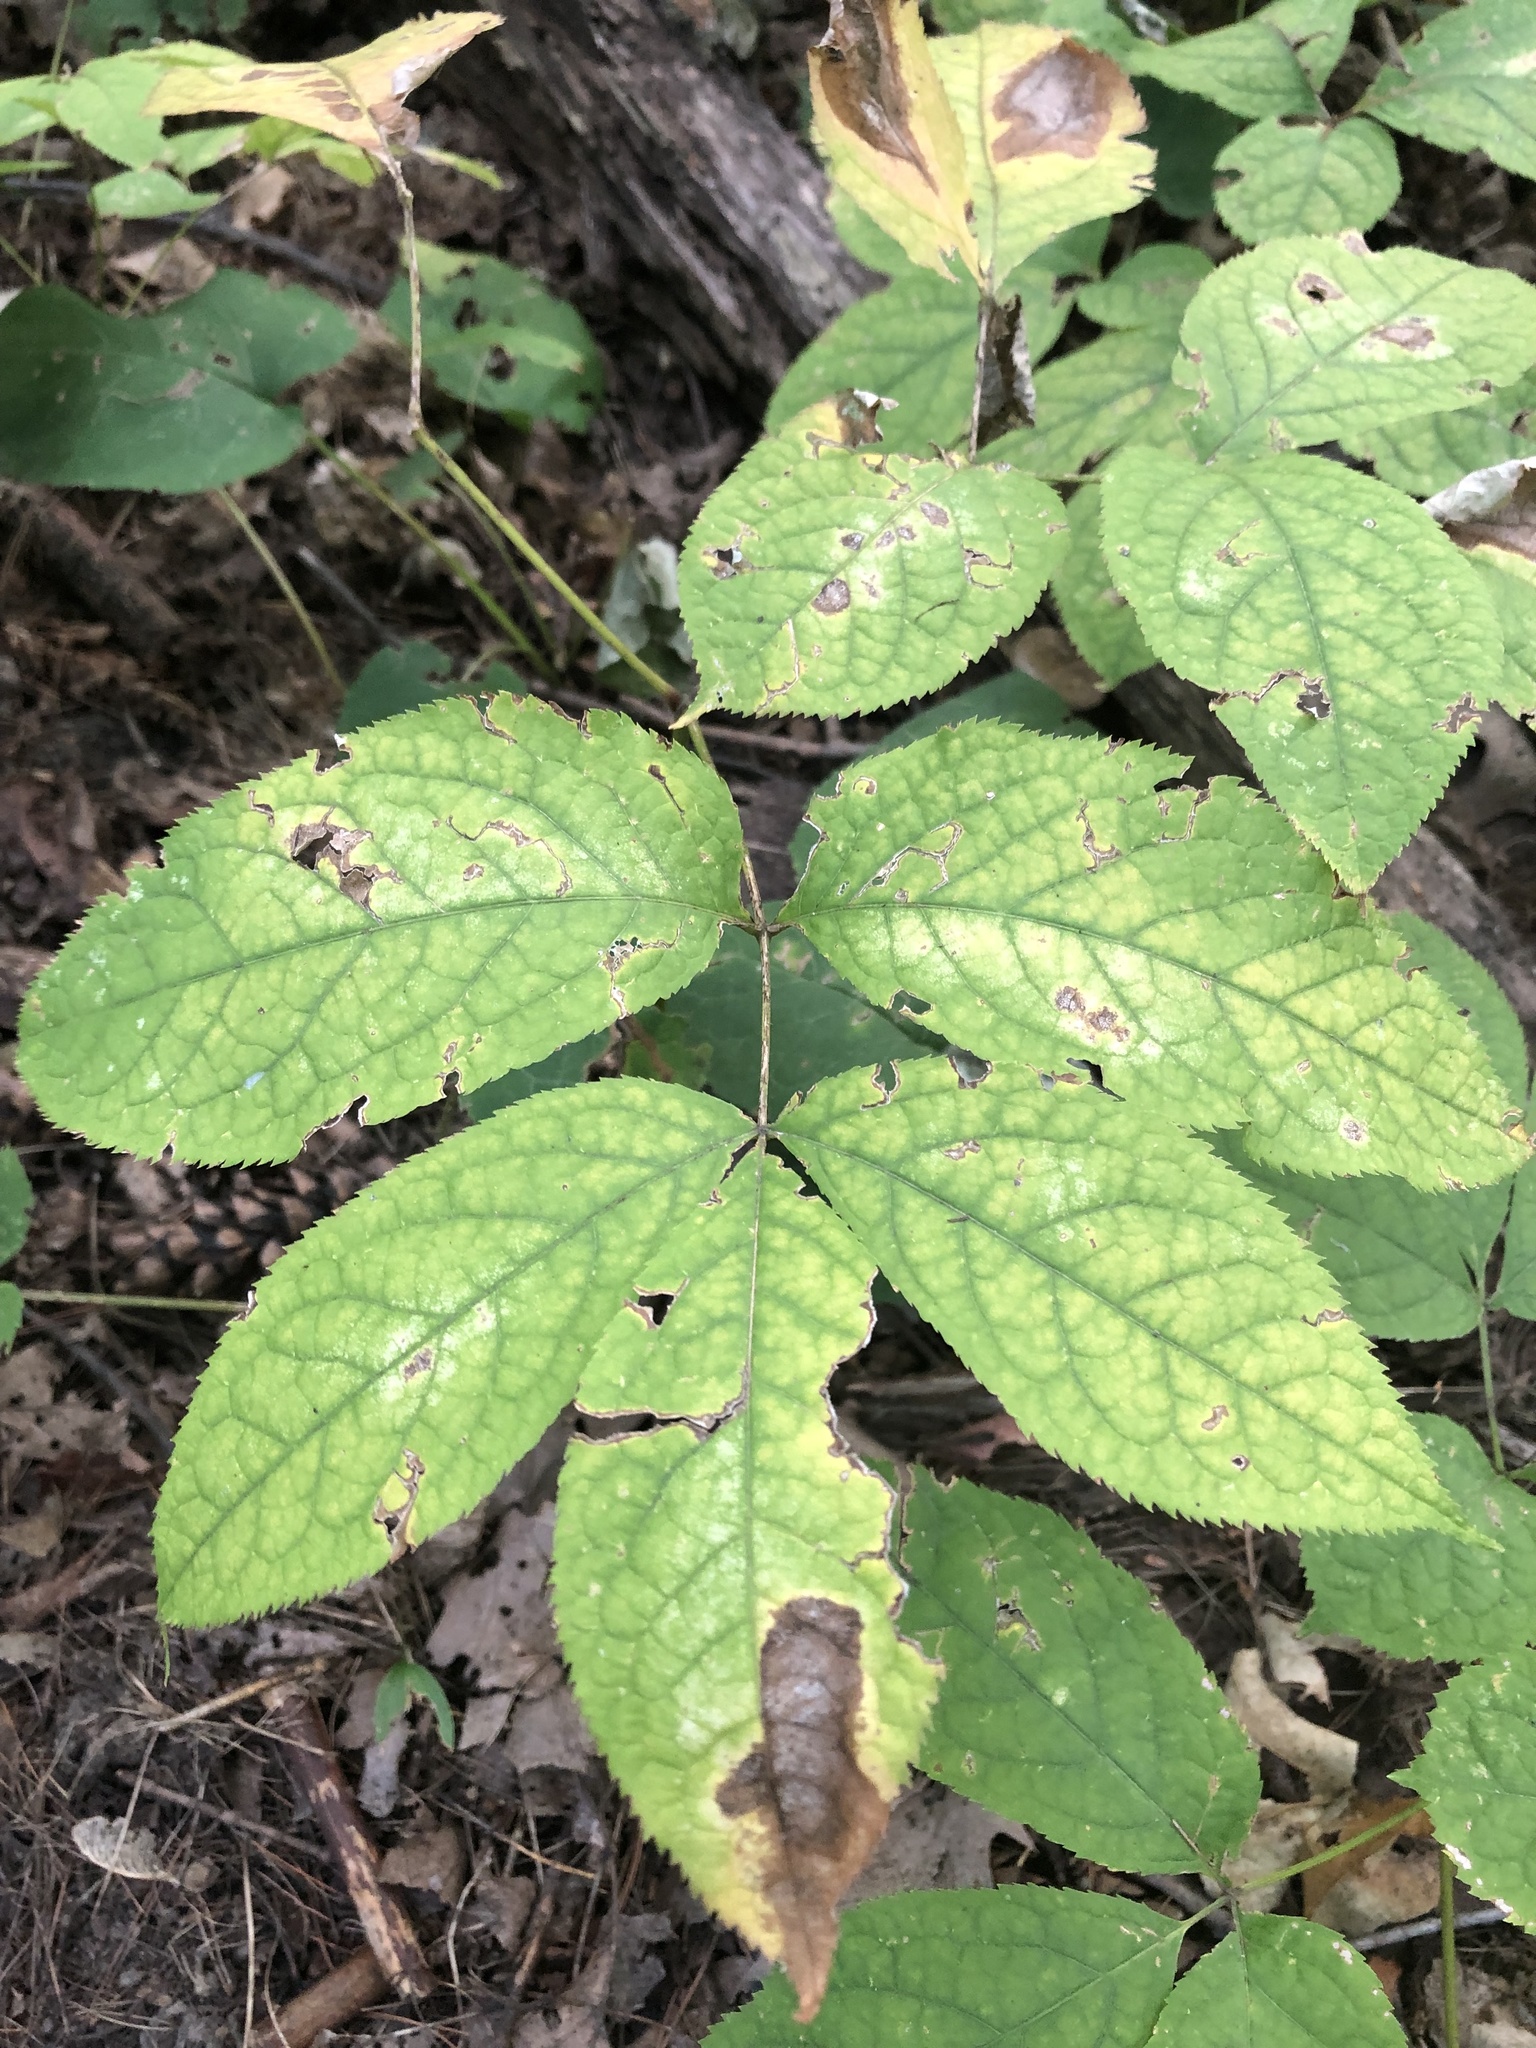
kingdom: Plantae
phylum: Tracheophyta
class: Magnoliopsida
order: Apiales
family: Araliaceae
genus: Aralia
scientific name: Aralia nudicaulis
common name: Wild sarsaparilla
